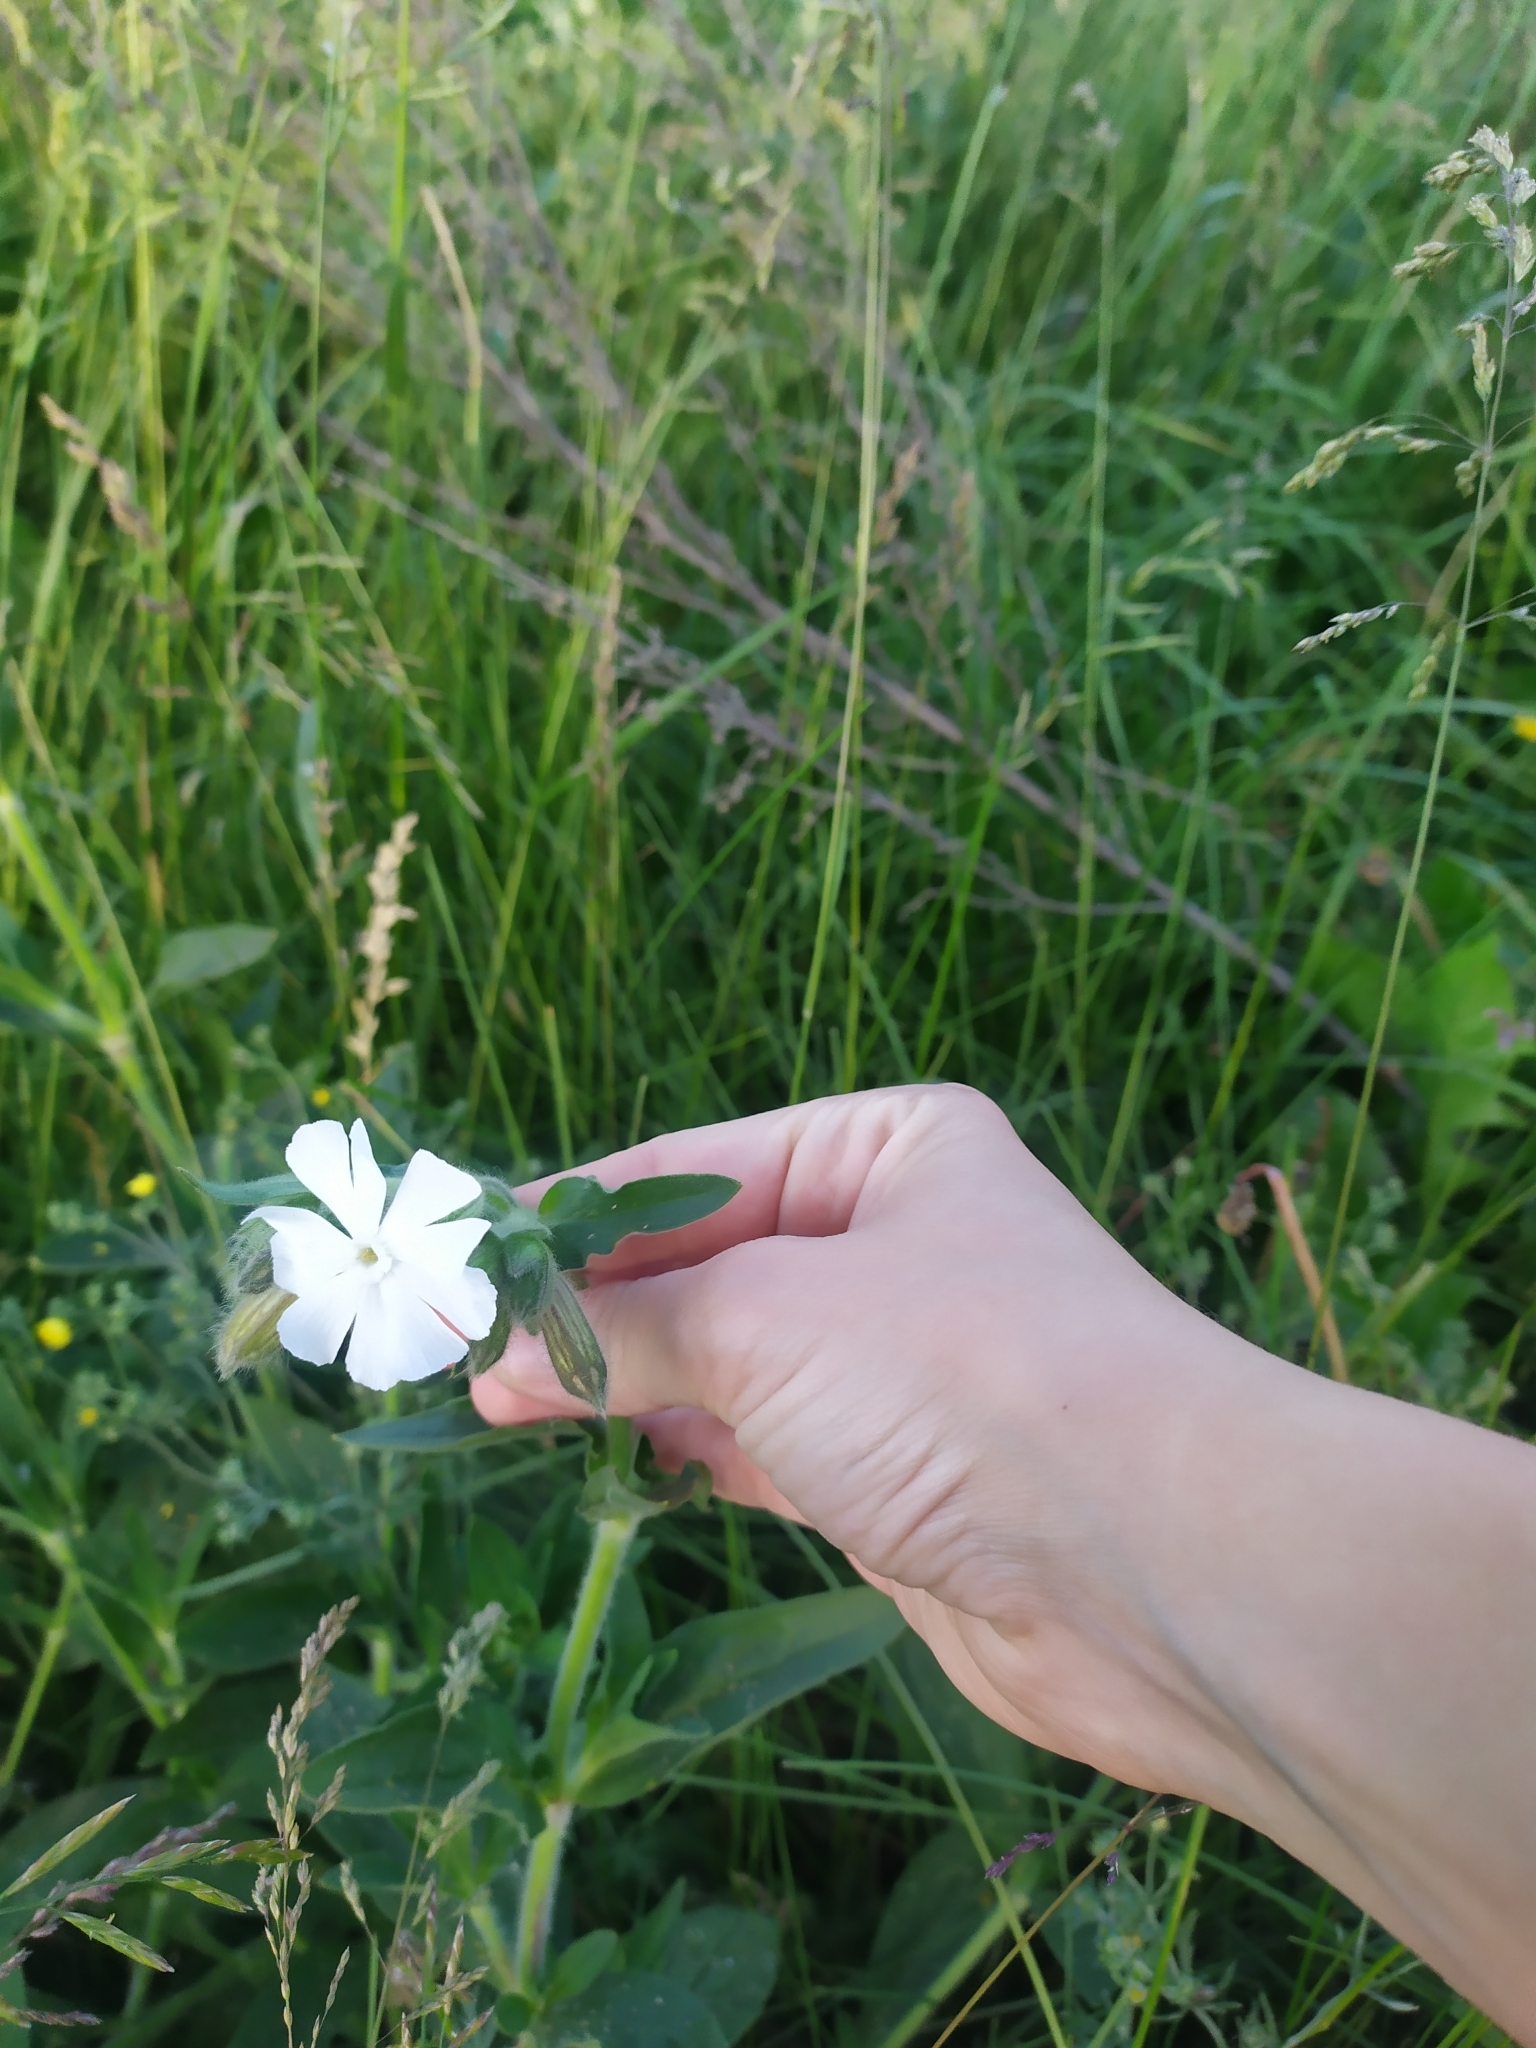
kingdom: Plantae
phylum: Tracheophyta
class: Magnoliopsida
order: Caryophyllales
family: Caryophyllaceae
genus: Silene
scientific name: Silene latifolia
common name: White campion
